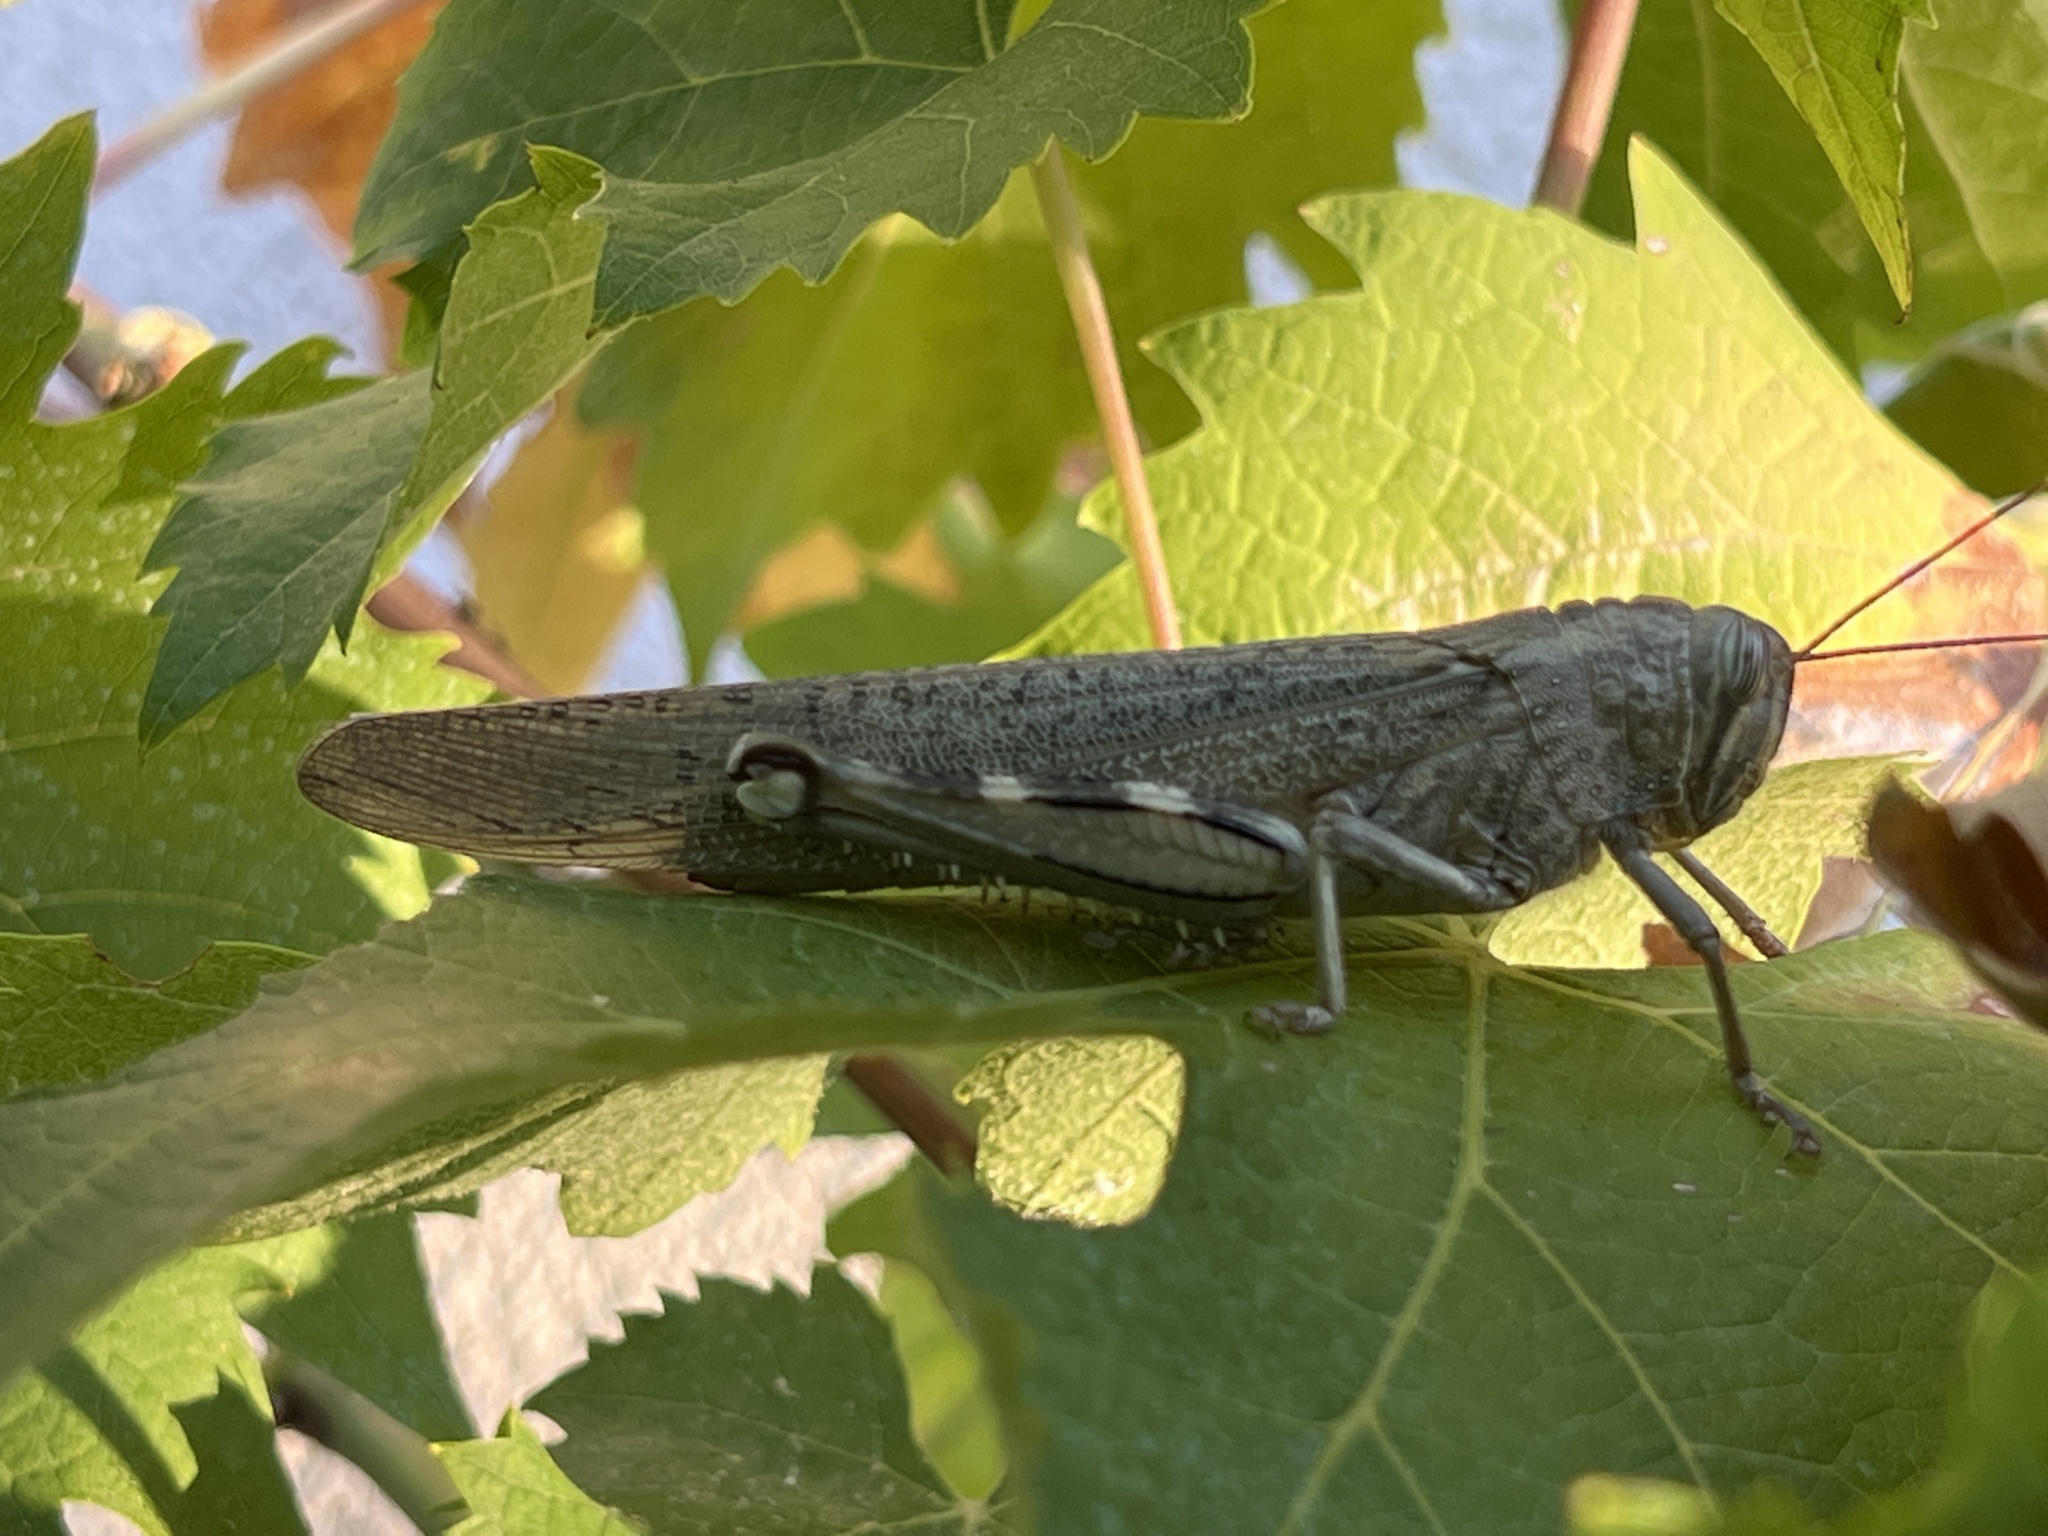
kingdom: Animalia
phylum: Arthropoda
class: Insecta
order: Orthoptera
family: Acrididae
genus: Anacridium
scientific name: Anacridium aegyptium
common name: Egyptian grasshopper
